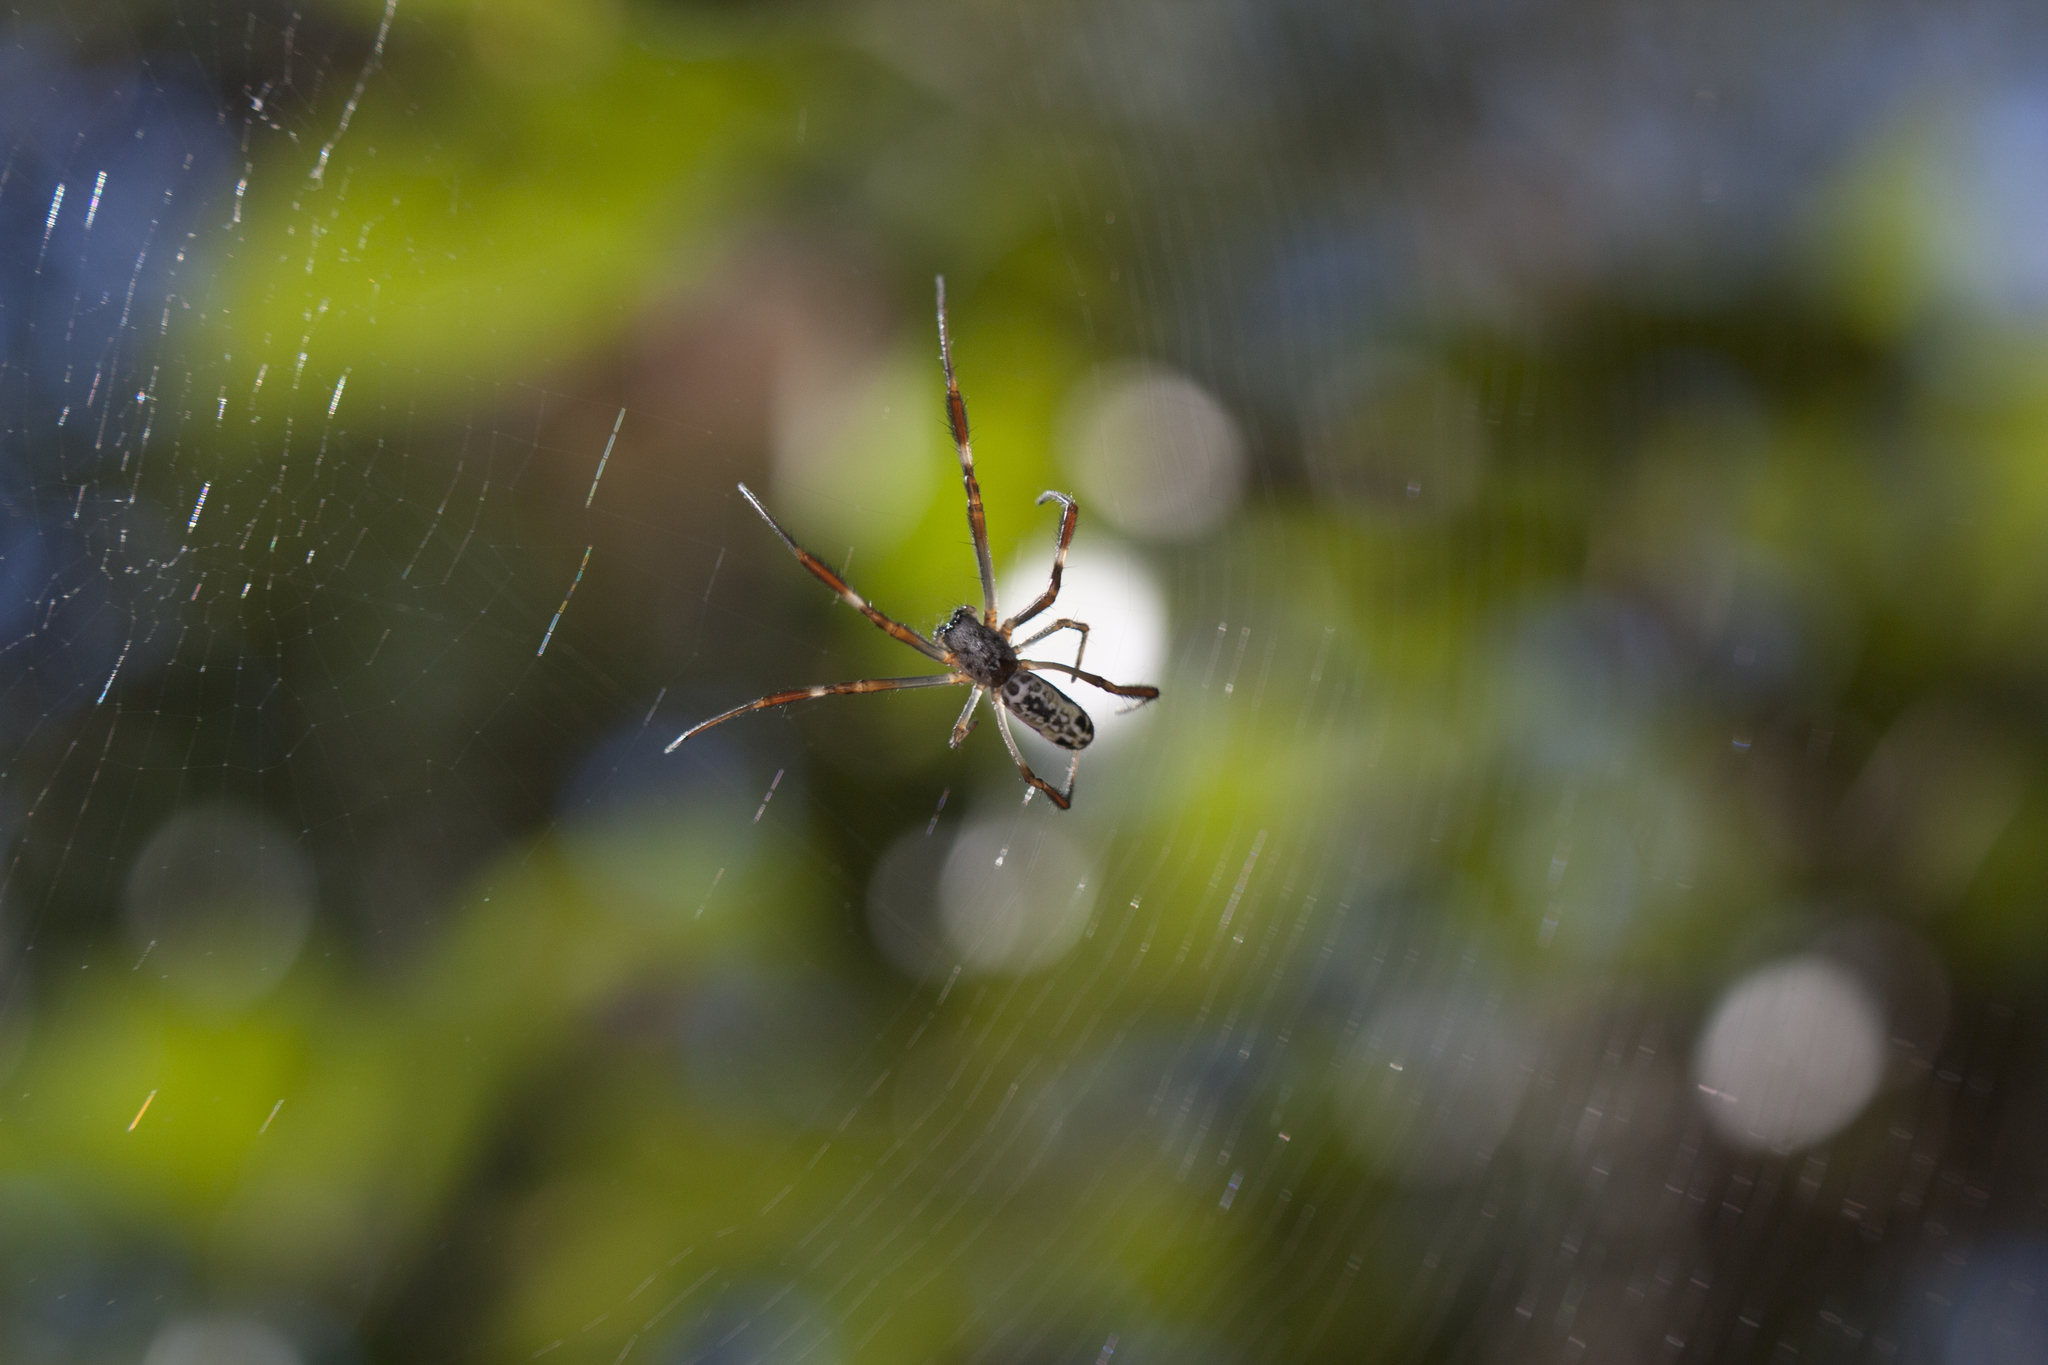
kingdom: Animalia
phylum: Arthropoda
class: Arachnida
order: Araneae
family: Araneidae
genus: Trichonephila
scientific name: Trichonephila edulis
